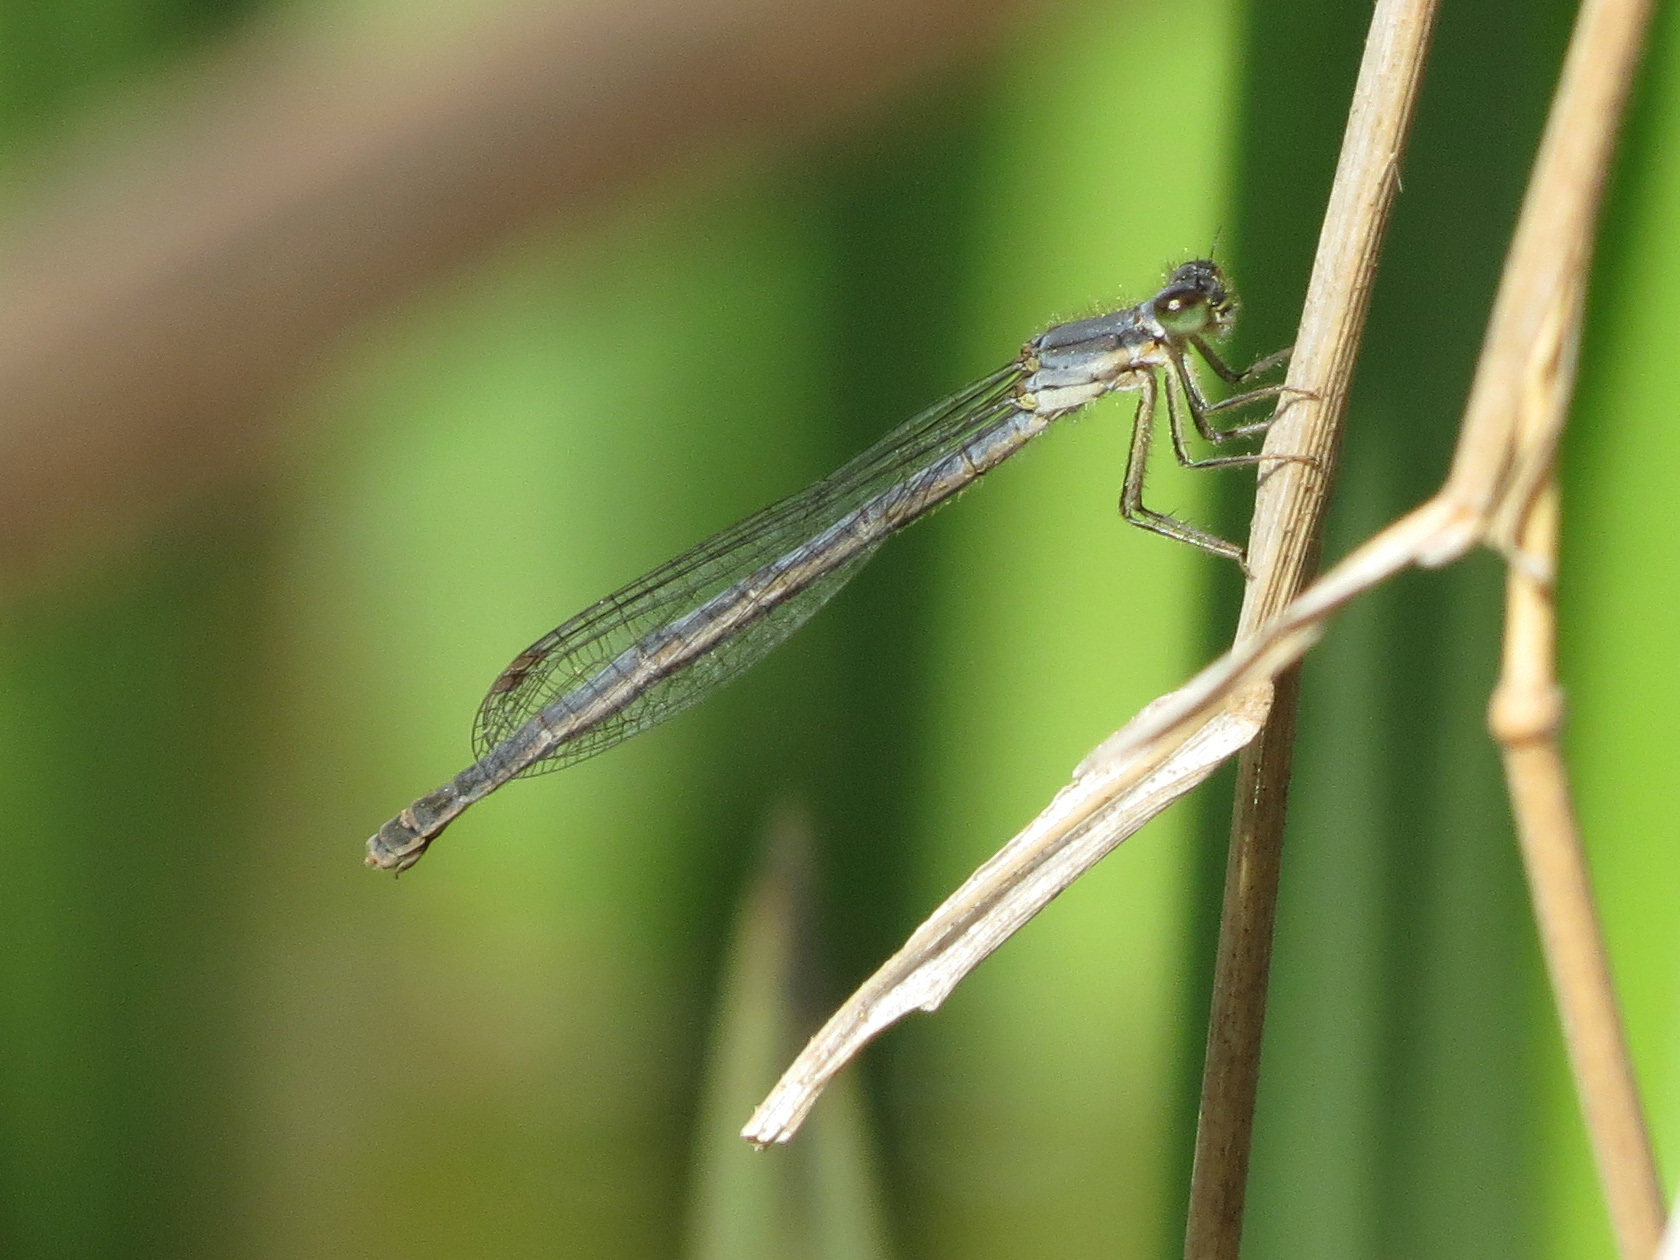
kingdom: Animalia
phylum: Arthropoda
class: Insecta
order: Odonata
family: Coenagrionidae
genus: Ischnura
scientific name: Ischnura verticalis
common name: Eastern forktail
